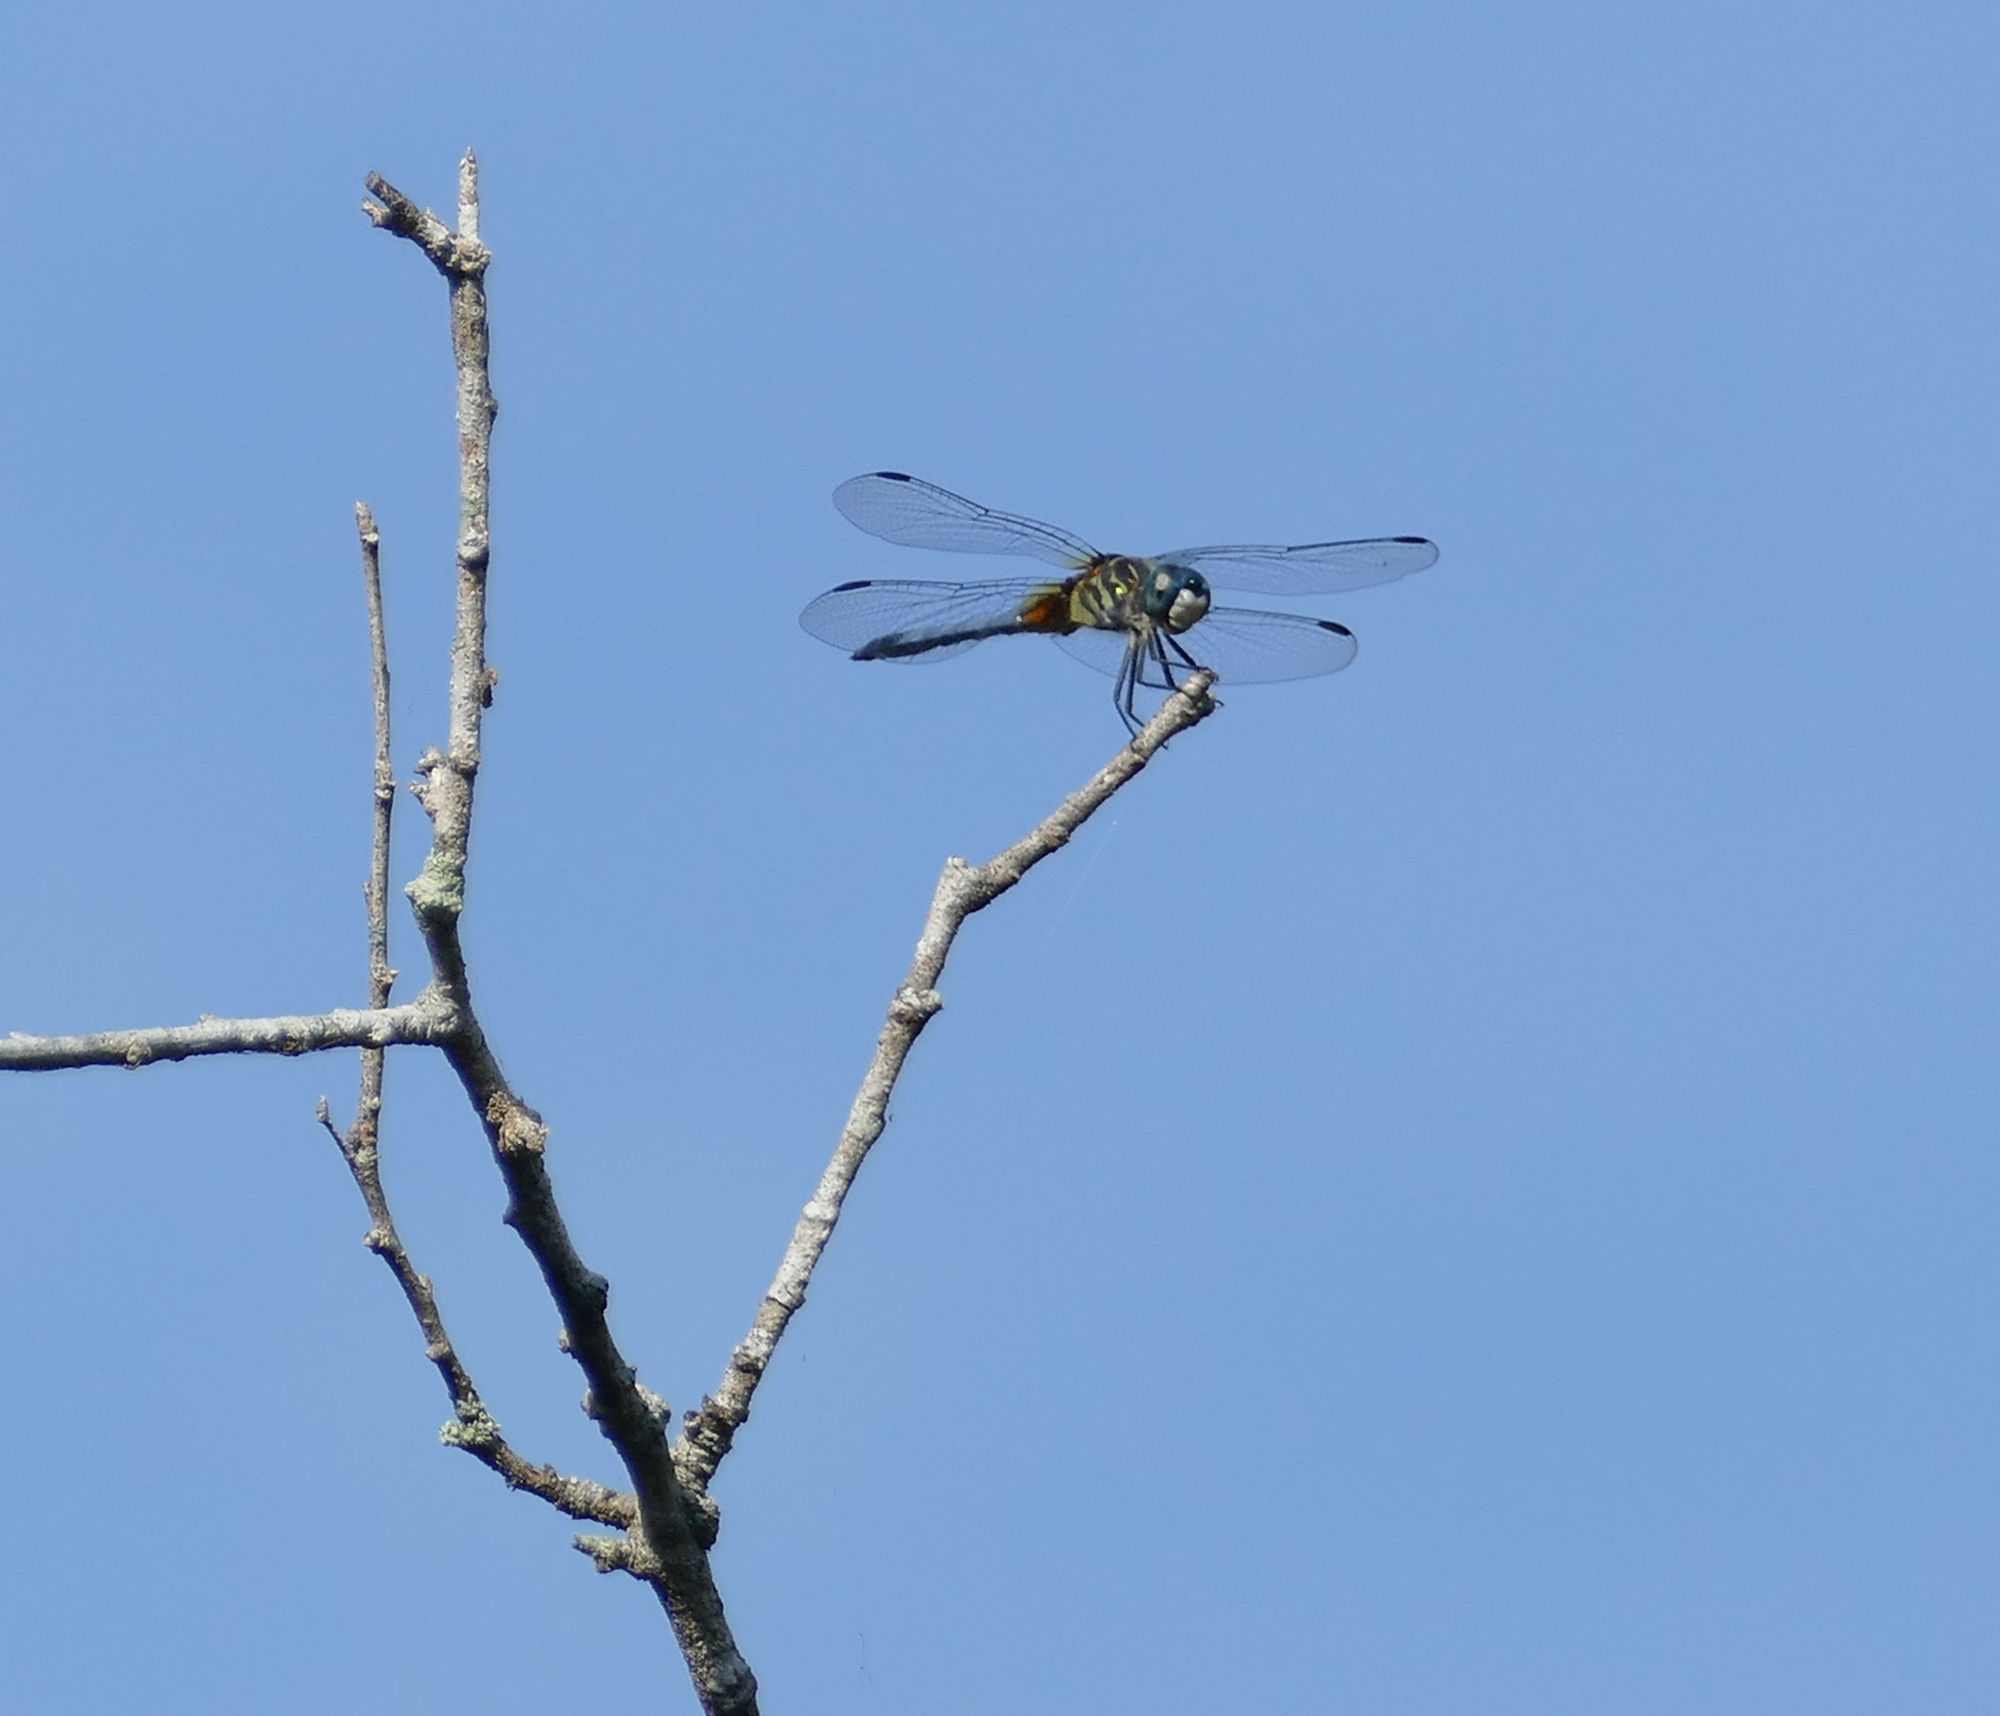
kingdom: Animalia
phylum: Arthropoda
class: Insecta
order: Odonata
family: Libellulidae
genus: Pachydiplax
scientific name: Pachydiplax longipennis
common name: Blue dasher
